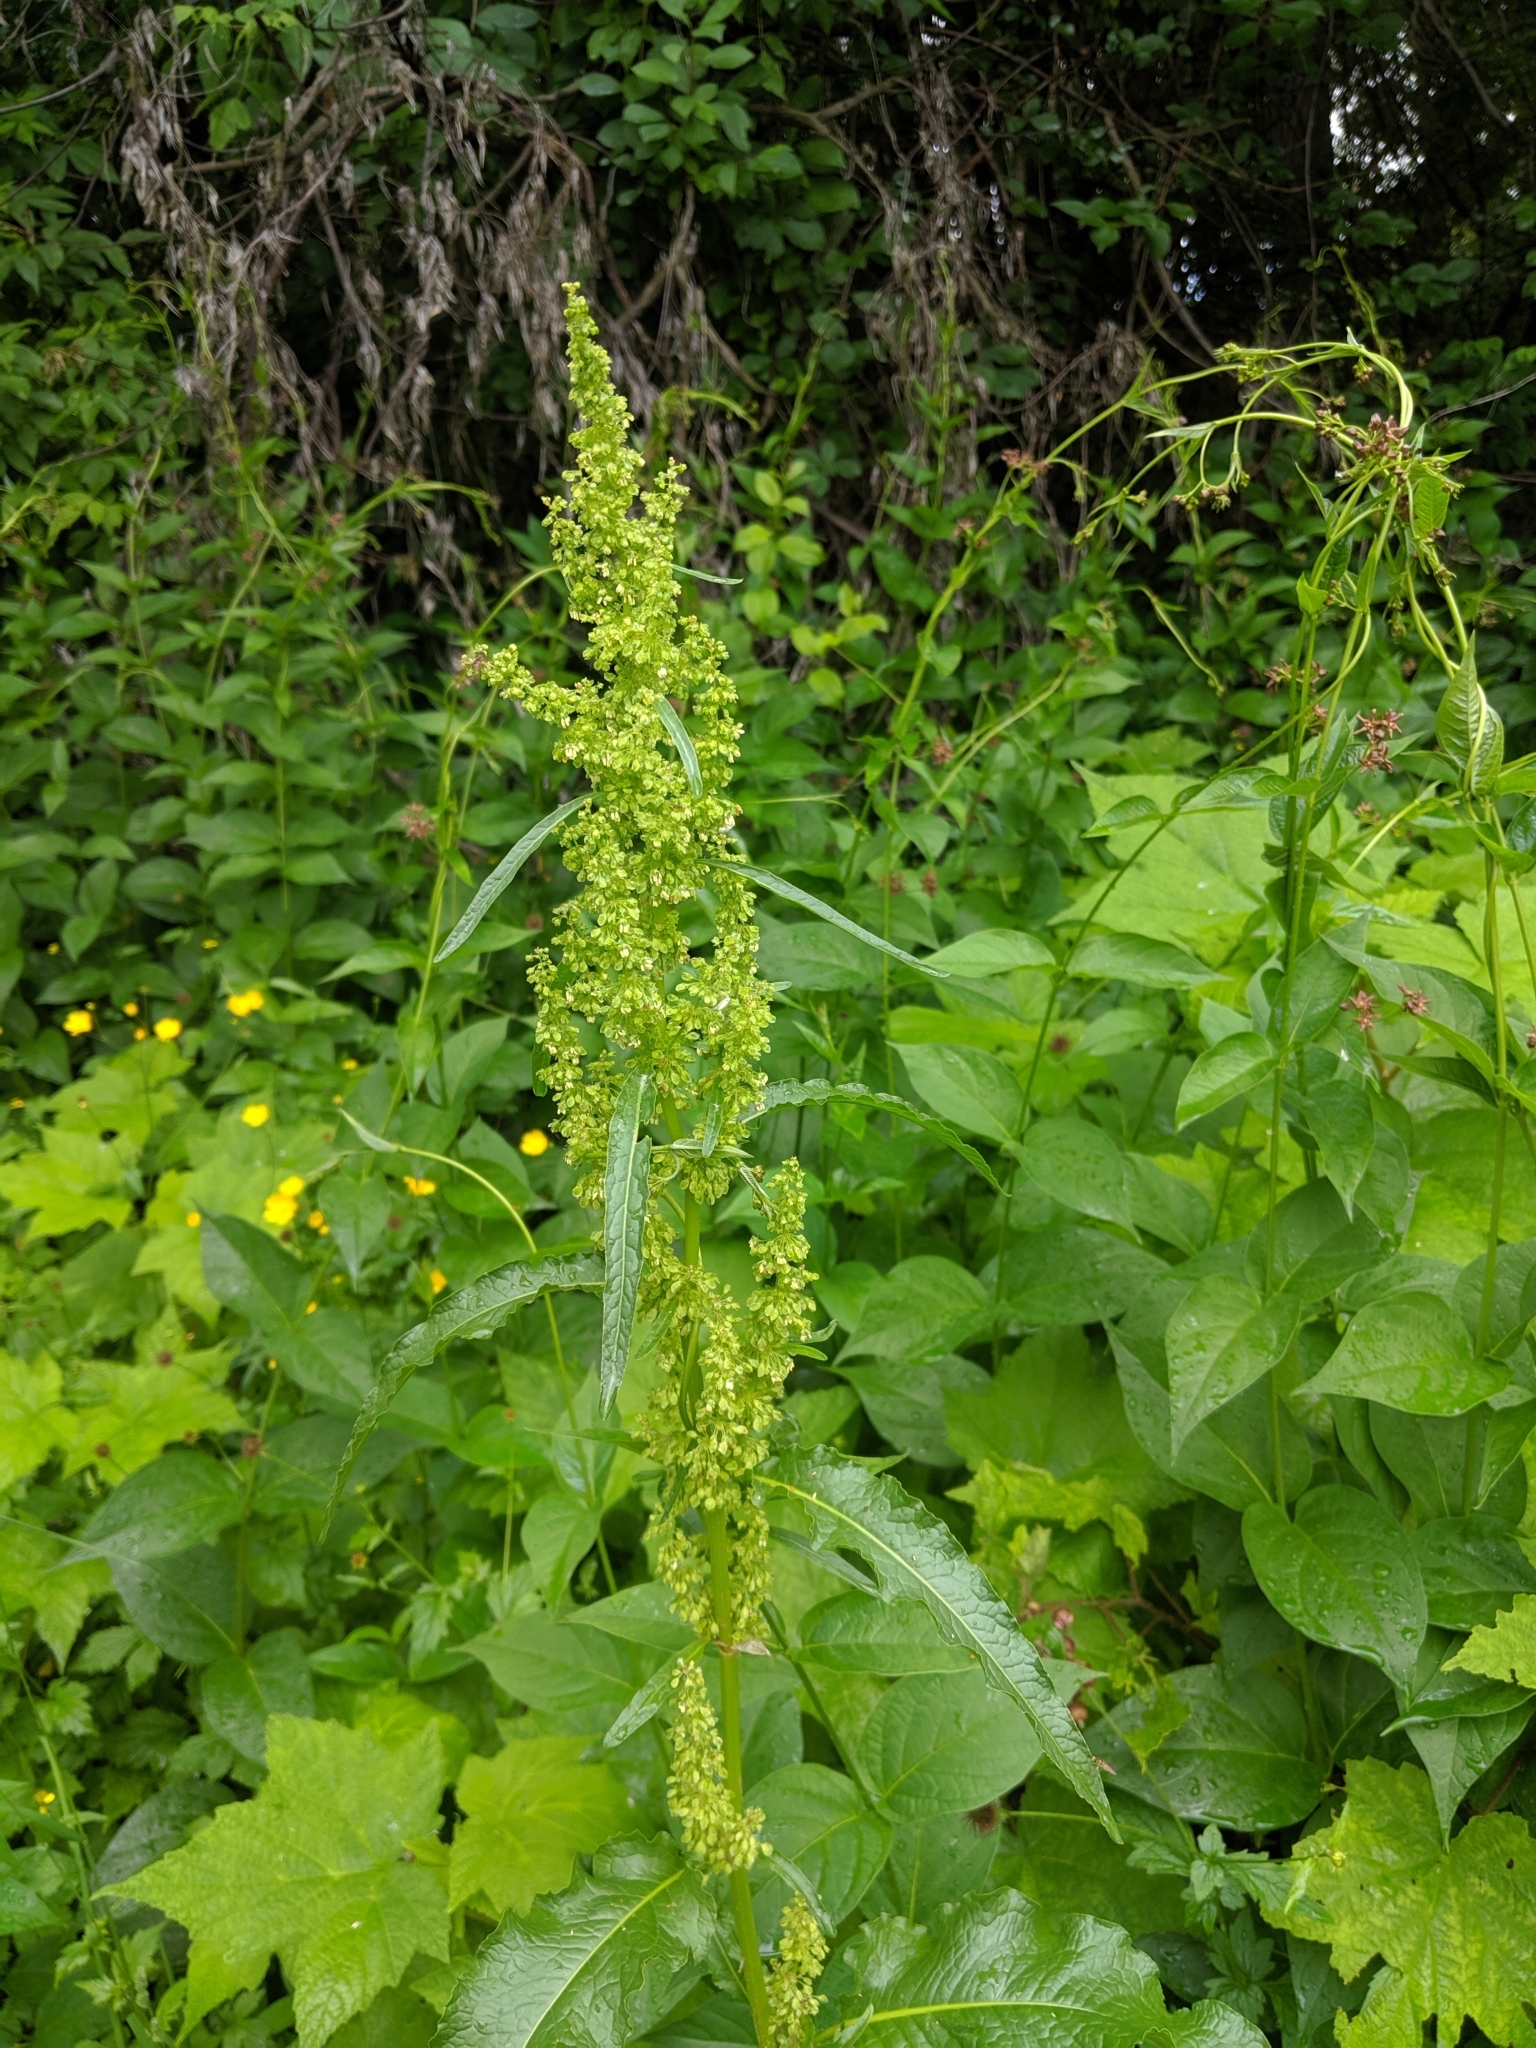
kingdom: Plantae
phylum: Tracheophyta
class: Magnoliopsida
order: Caryophyllales
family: Polygonaceae
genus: Rumex
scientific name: Rumex crispus
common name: Curled dock
